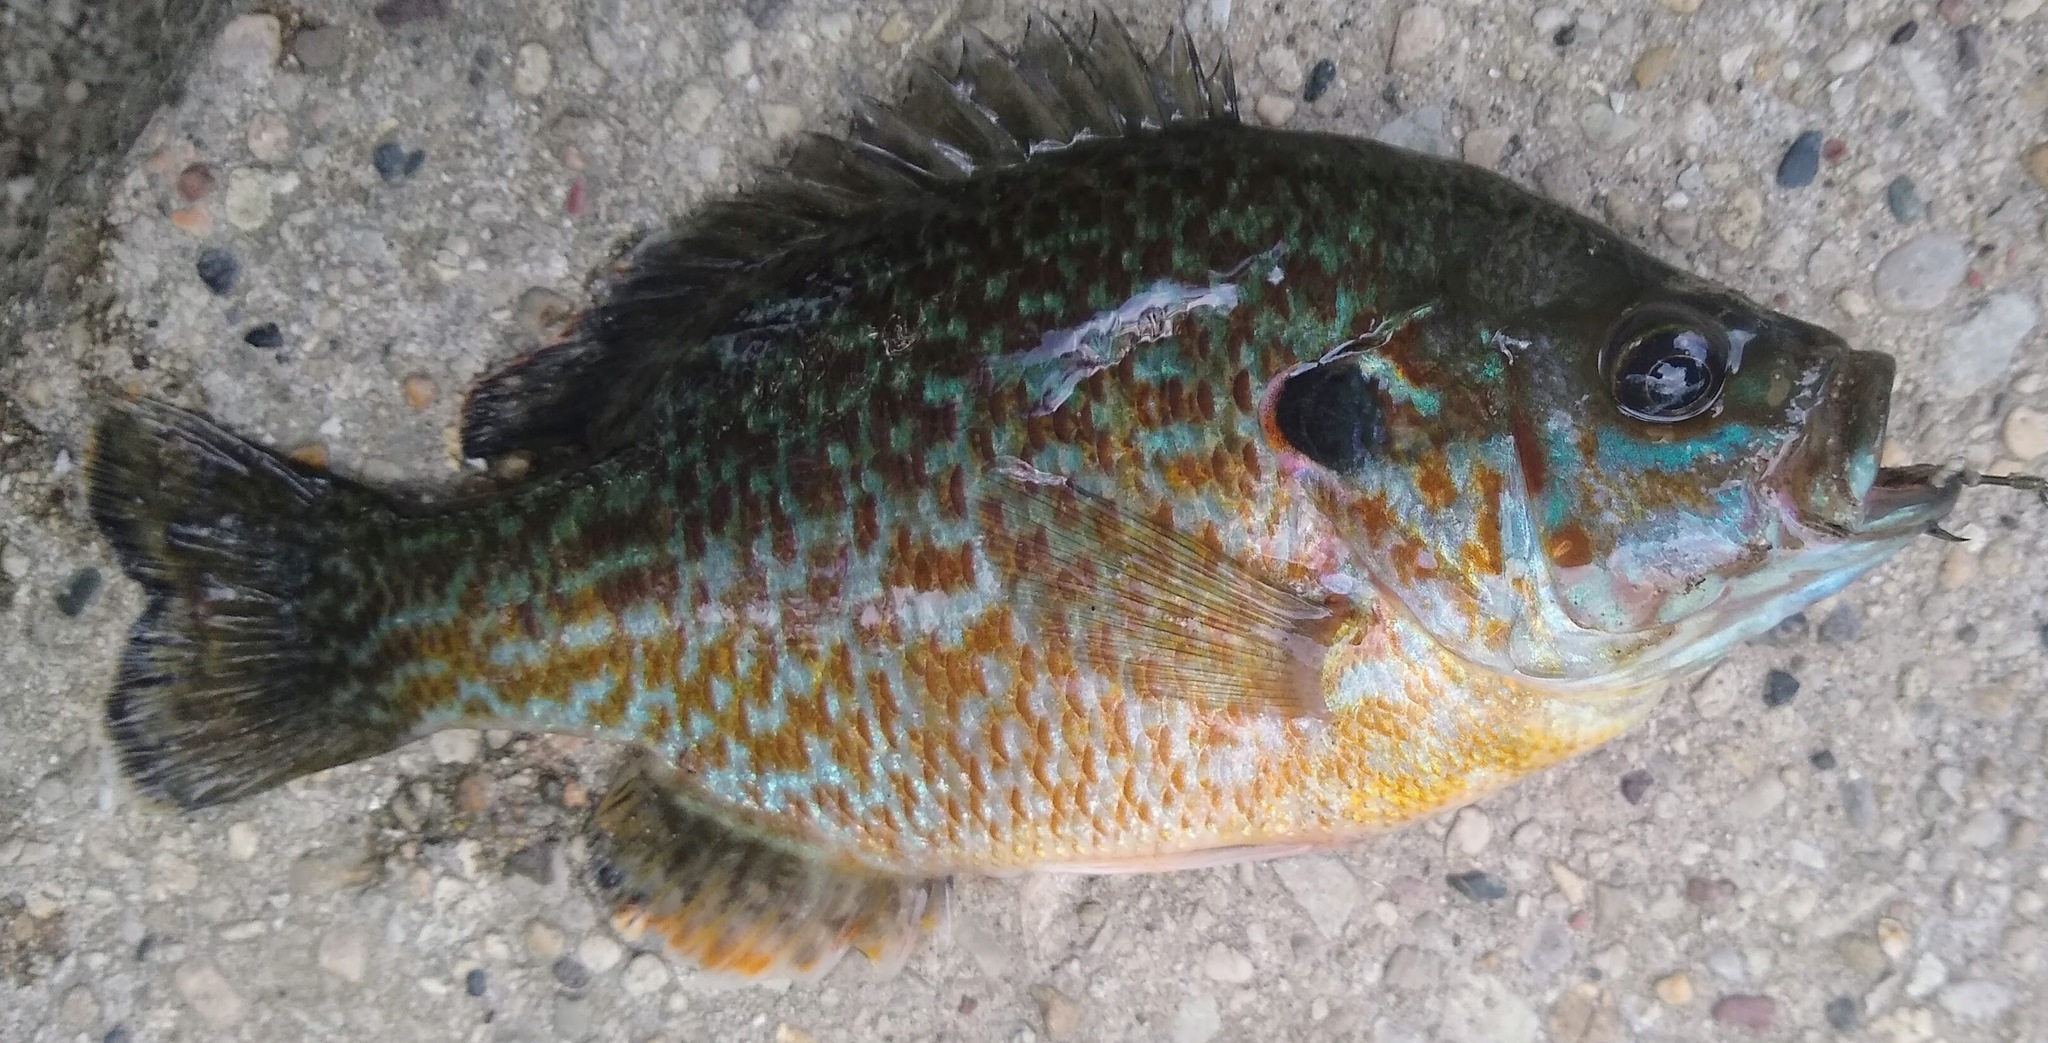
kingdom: Animalia
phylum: Chordata
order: Perciformes
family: Centrarchidae
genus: Lepomis
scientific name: Lepomis
